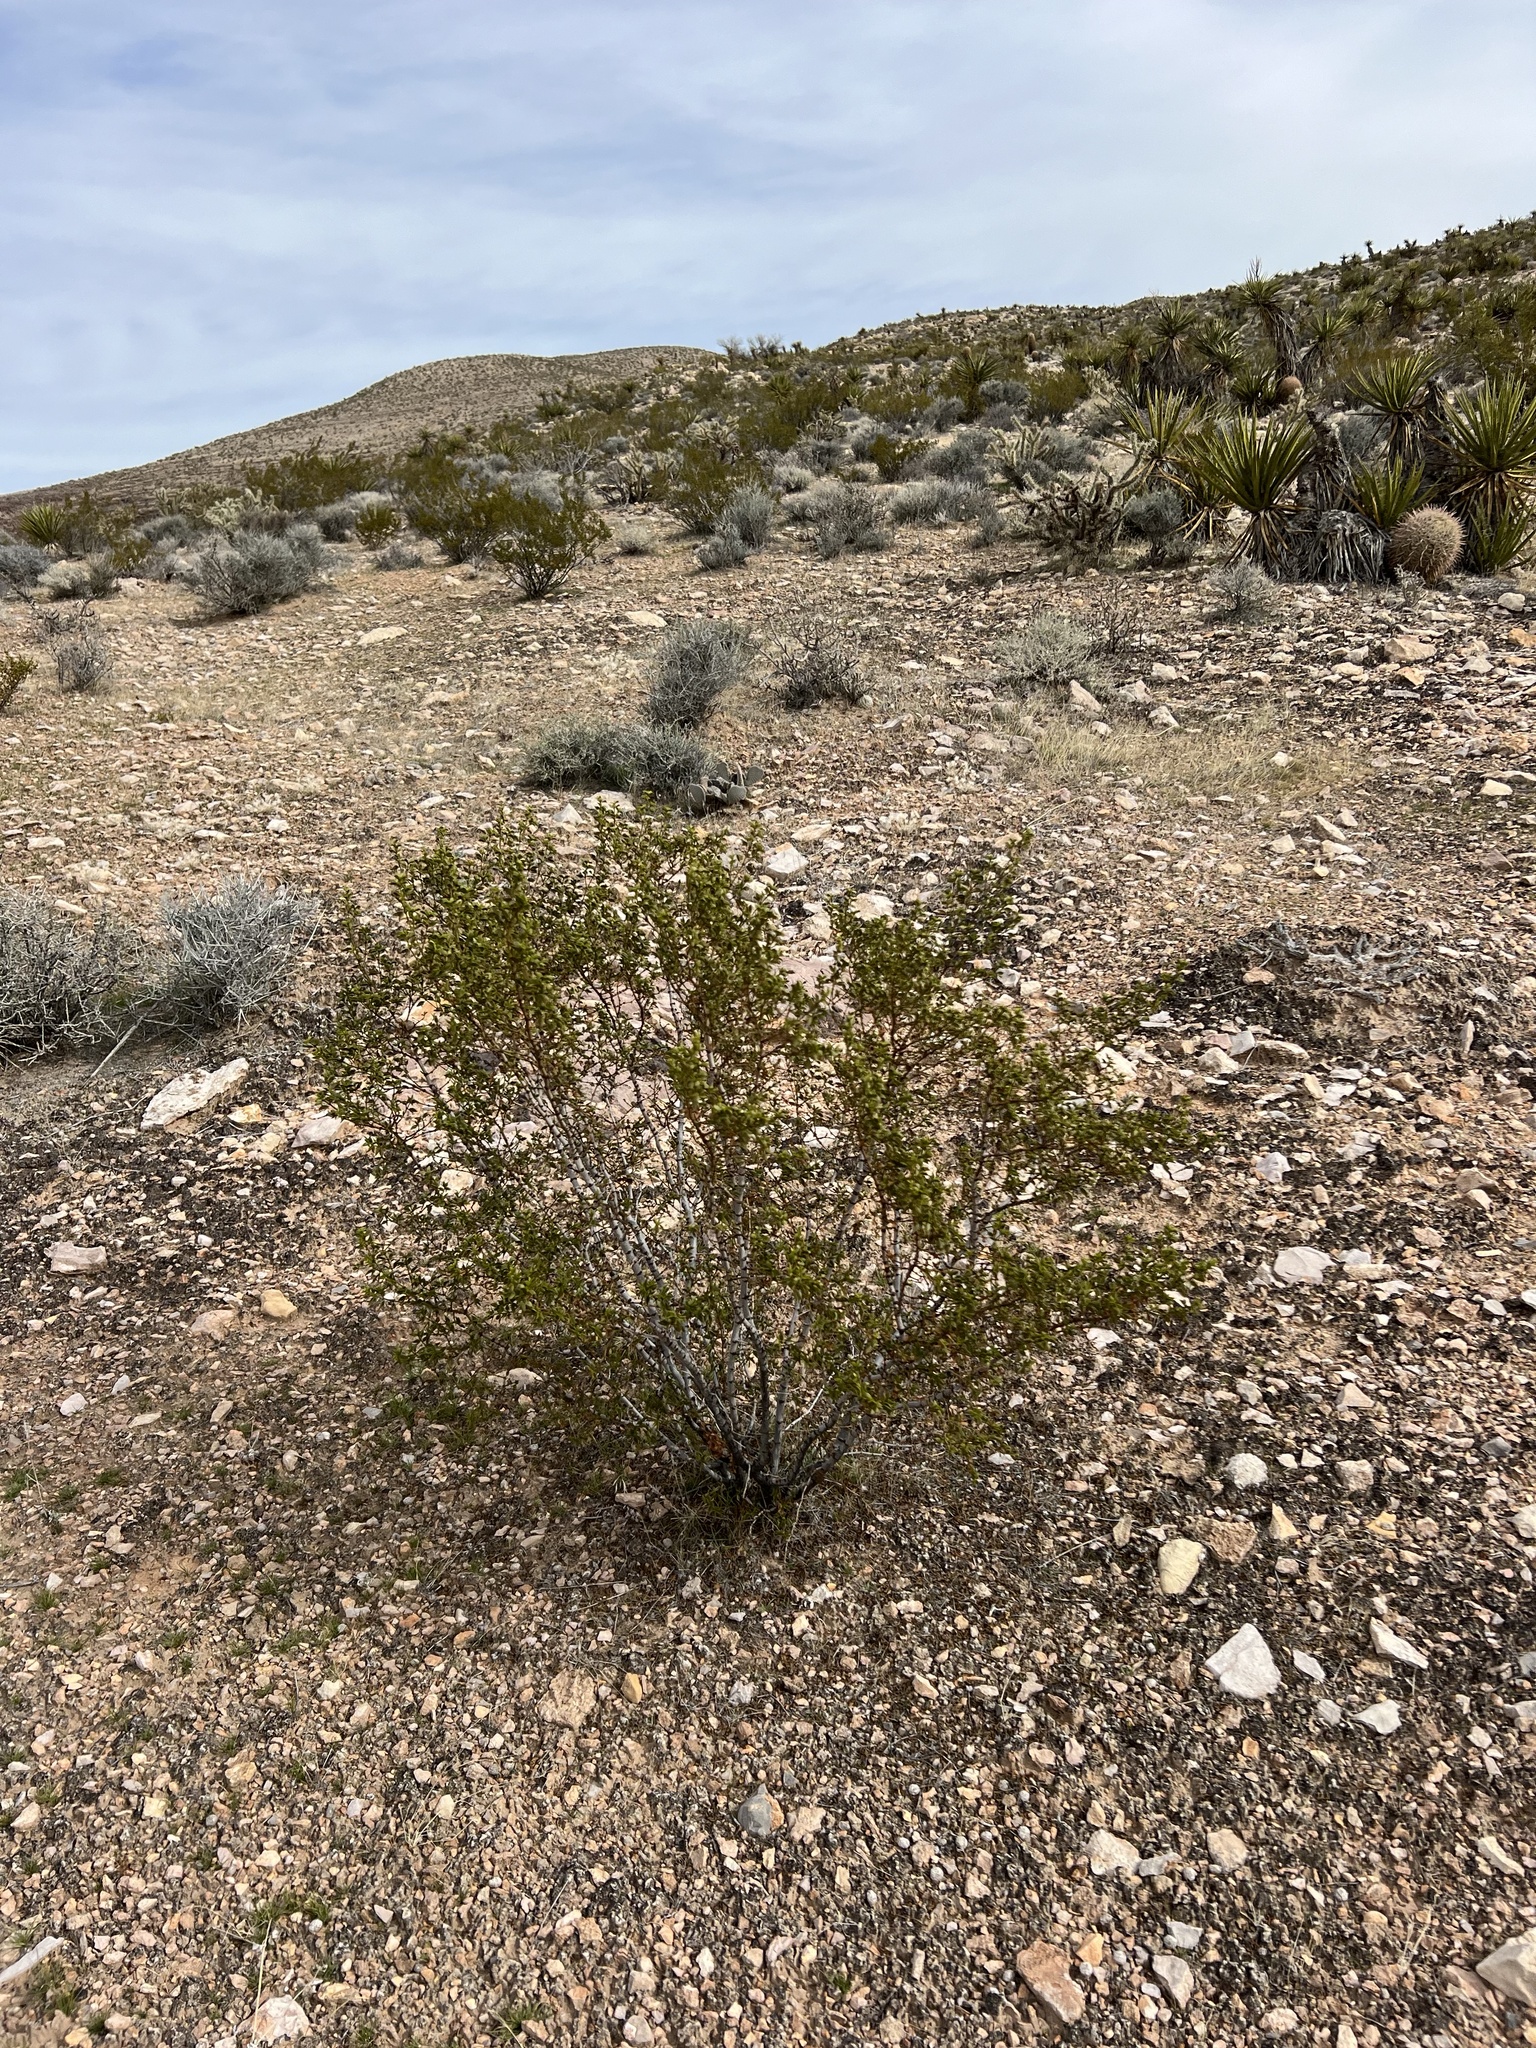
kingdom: Plantae
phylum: Tracheophyta
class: Magnoliopsida
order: Zygophyllales
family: Zygophyllaceae
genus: Larrea
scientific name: Larrea tridentata
